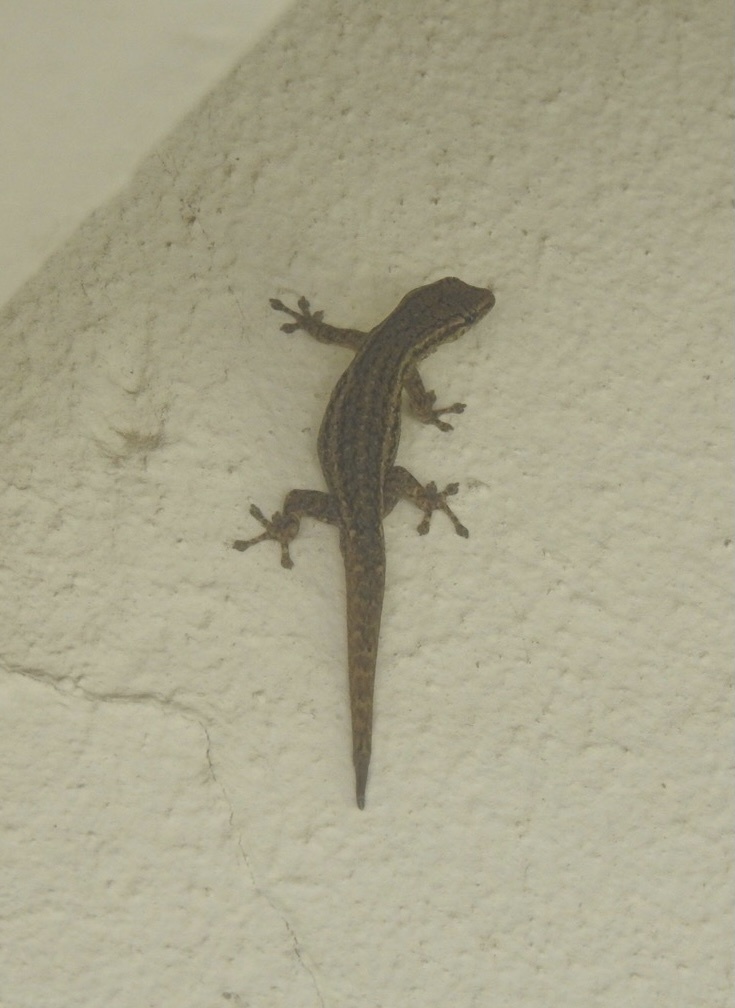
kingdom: Animalia
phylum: Chordata
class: Squamata
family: Gekkonidae
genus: Lygodactylus
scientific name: Lygodactylus capensis
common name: Cape dwarf gecko
